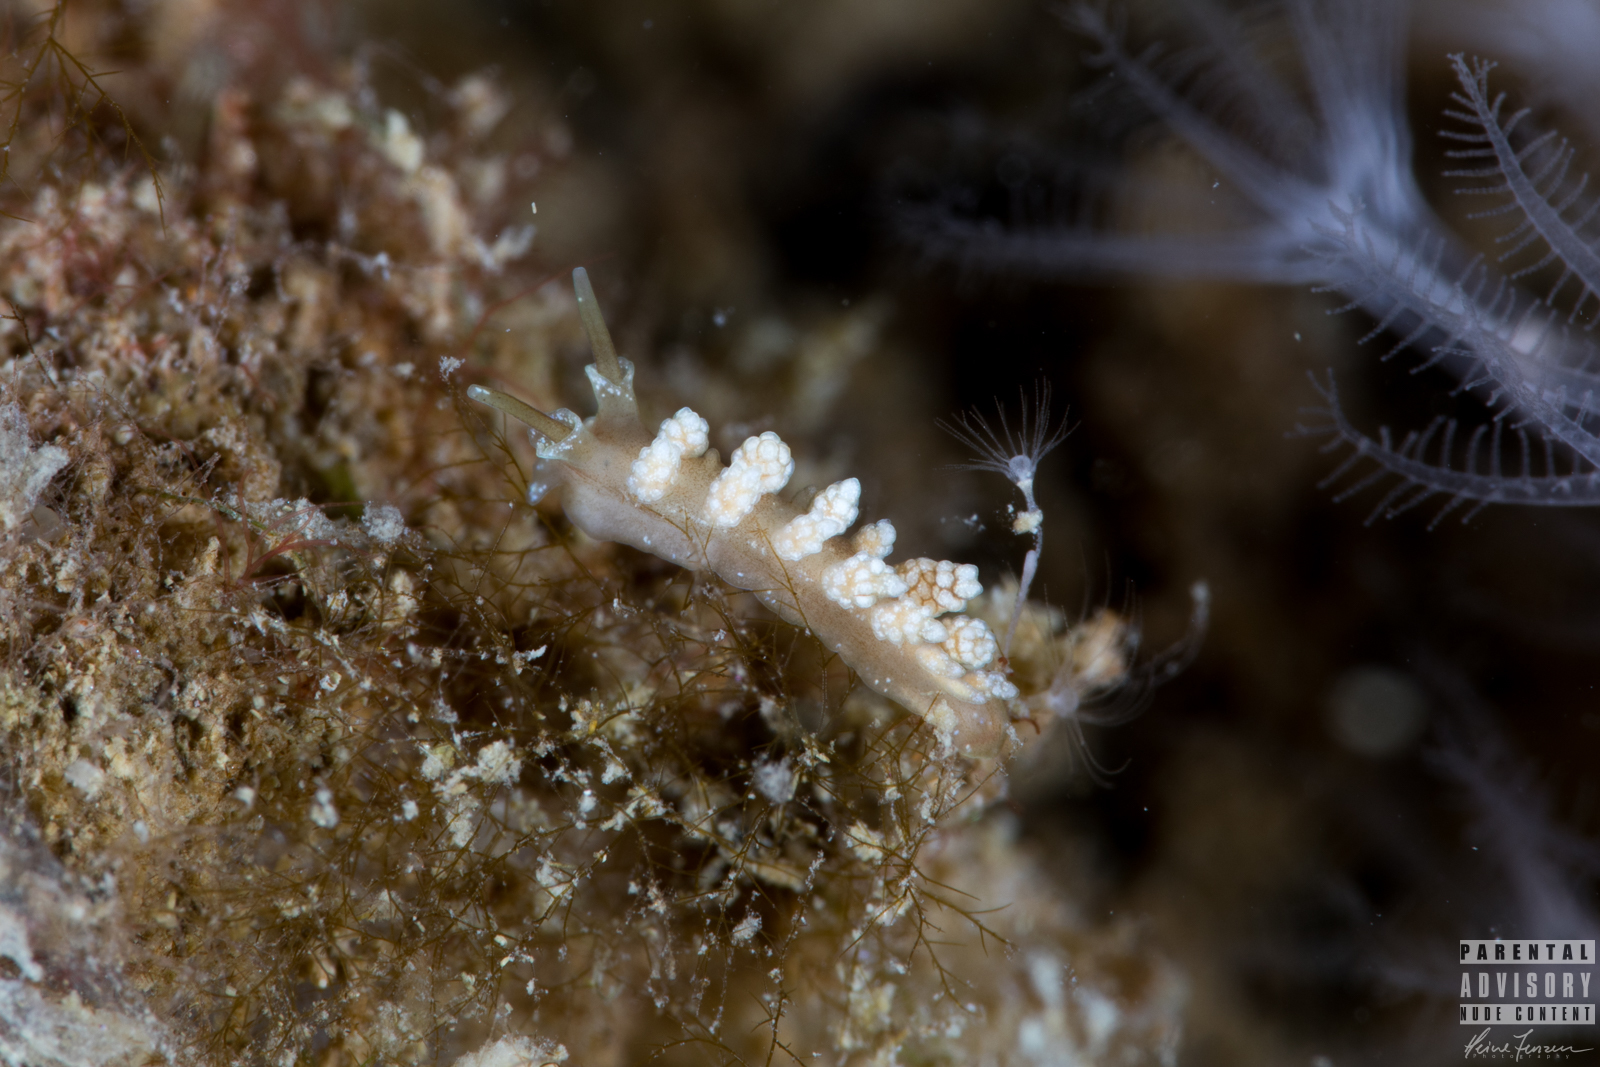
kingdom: Animalia
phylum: Mollusca
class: Gastropoda
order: Nudibranchia
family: Dotidae
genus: Doto
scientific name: Doto fragilis
